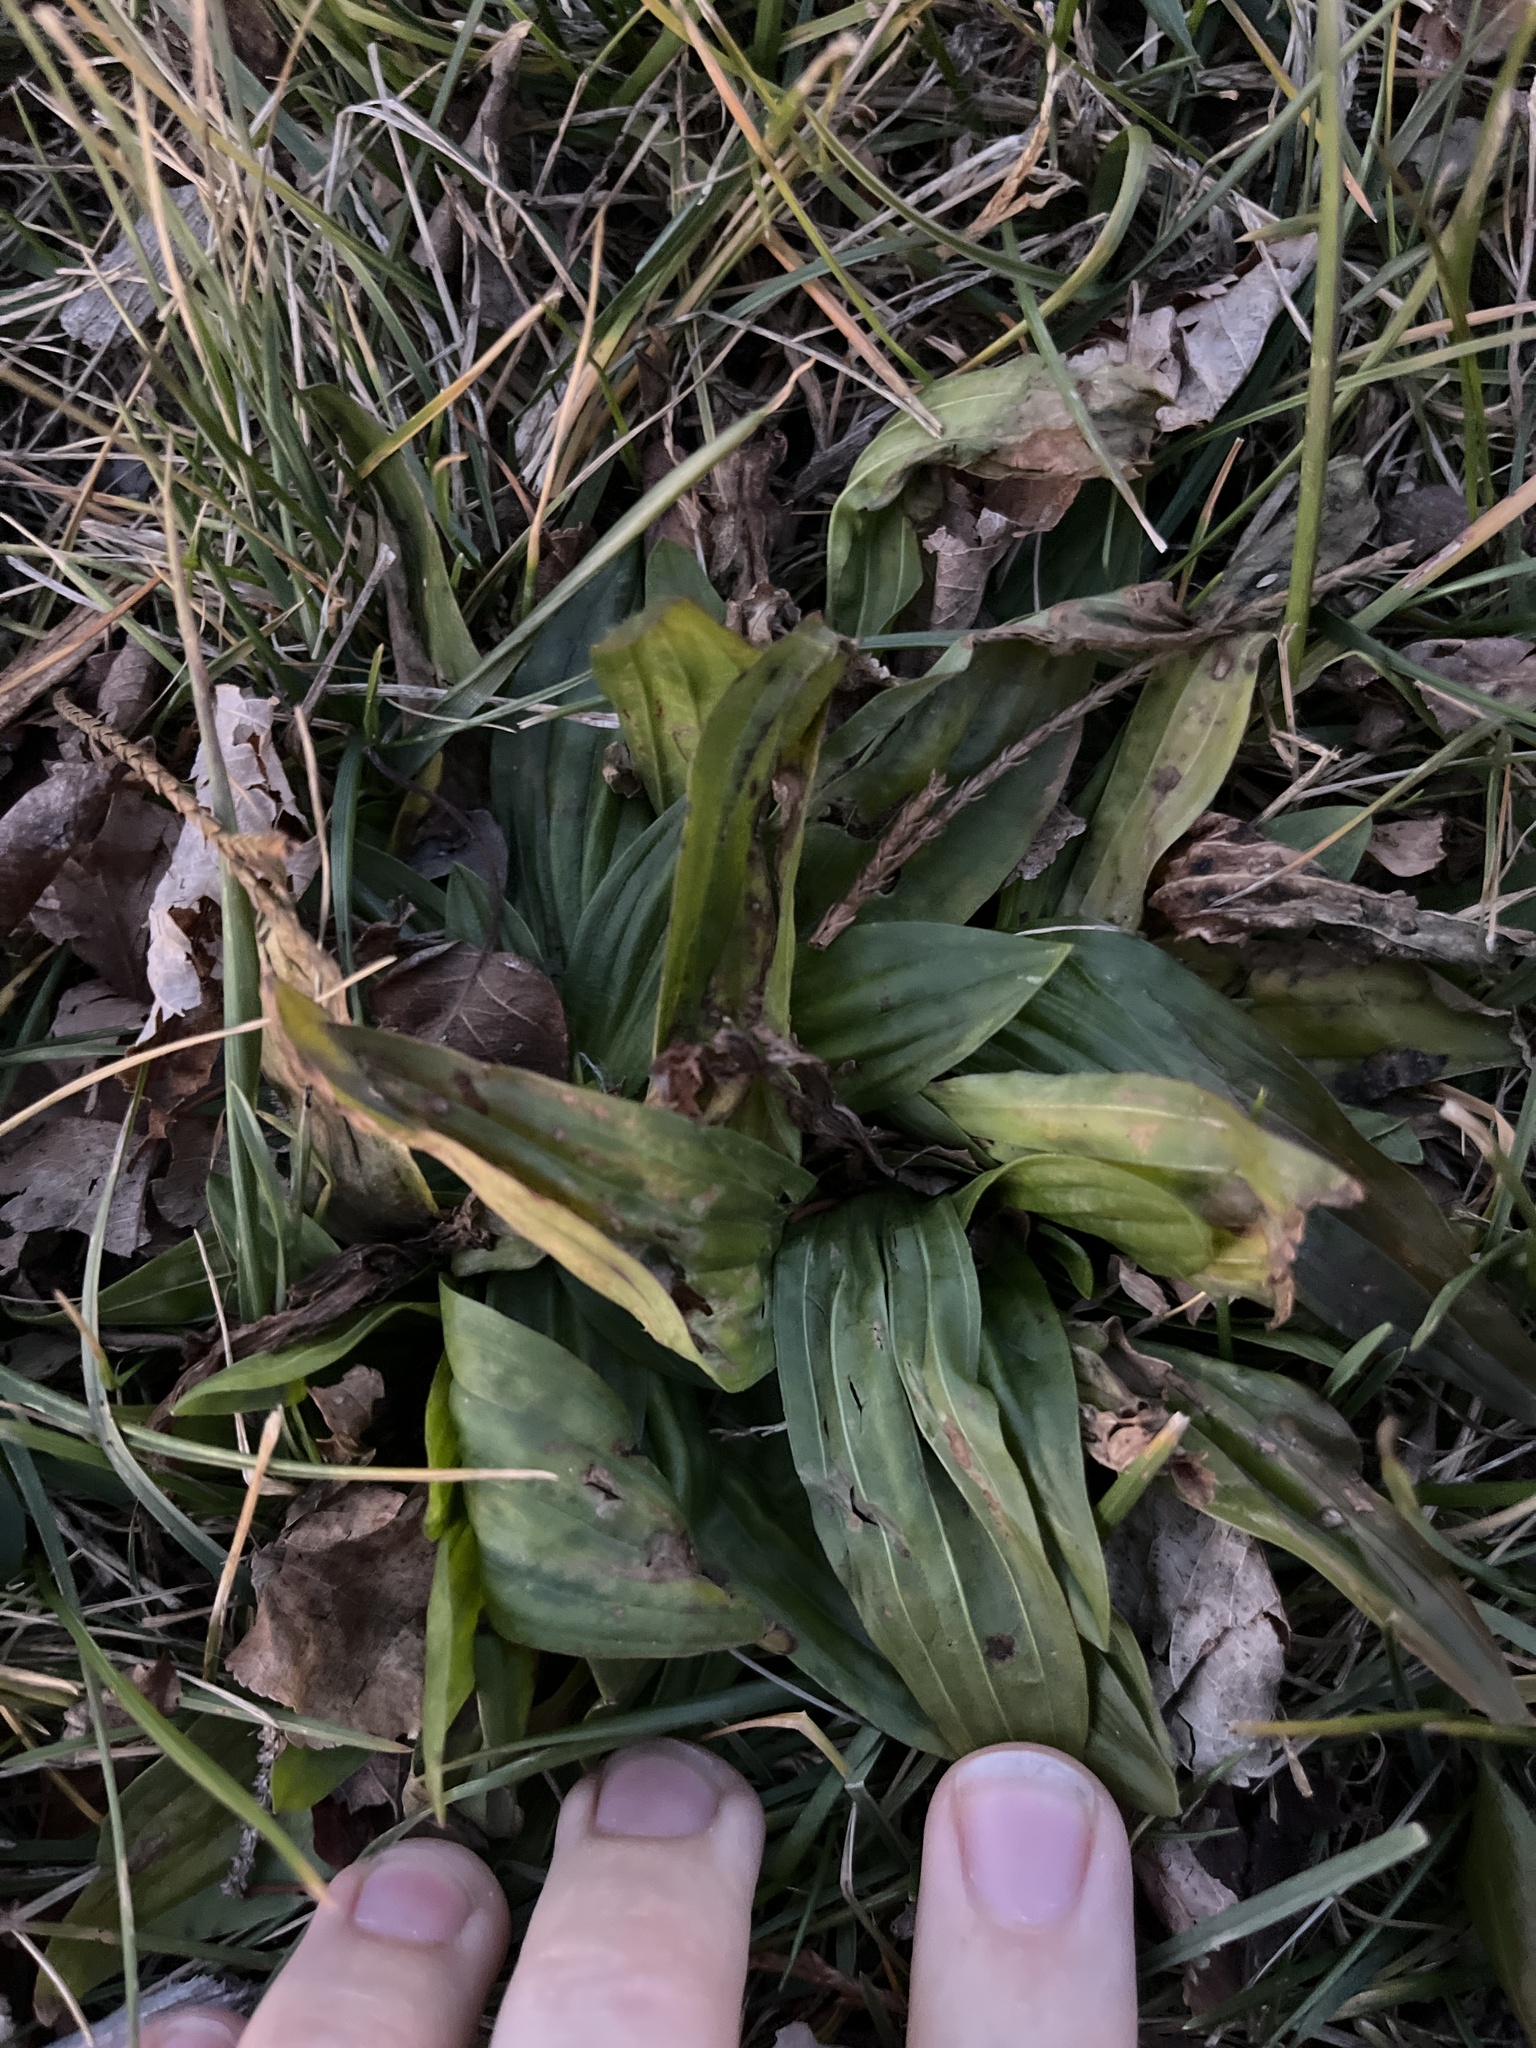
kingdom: Plantae
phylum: Tracheophyta
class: Magnoliopsida
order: Lamiales
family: Plantaginaceae
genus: Plantago
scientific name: Plantago lanceolata
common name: Ribwort plantain
